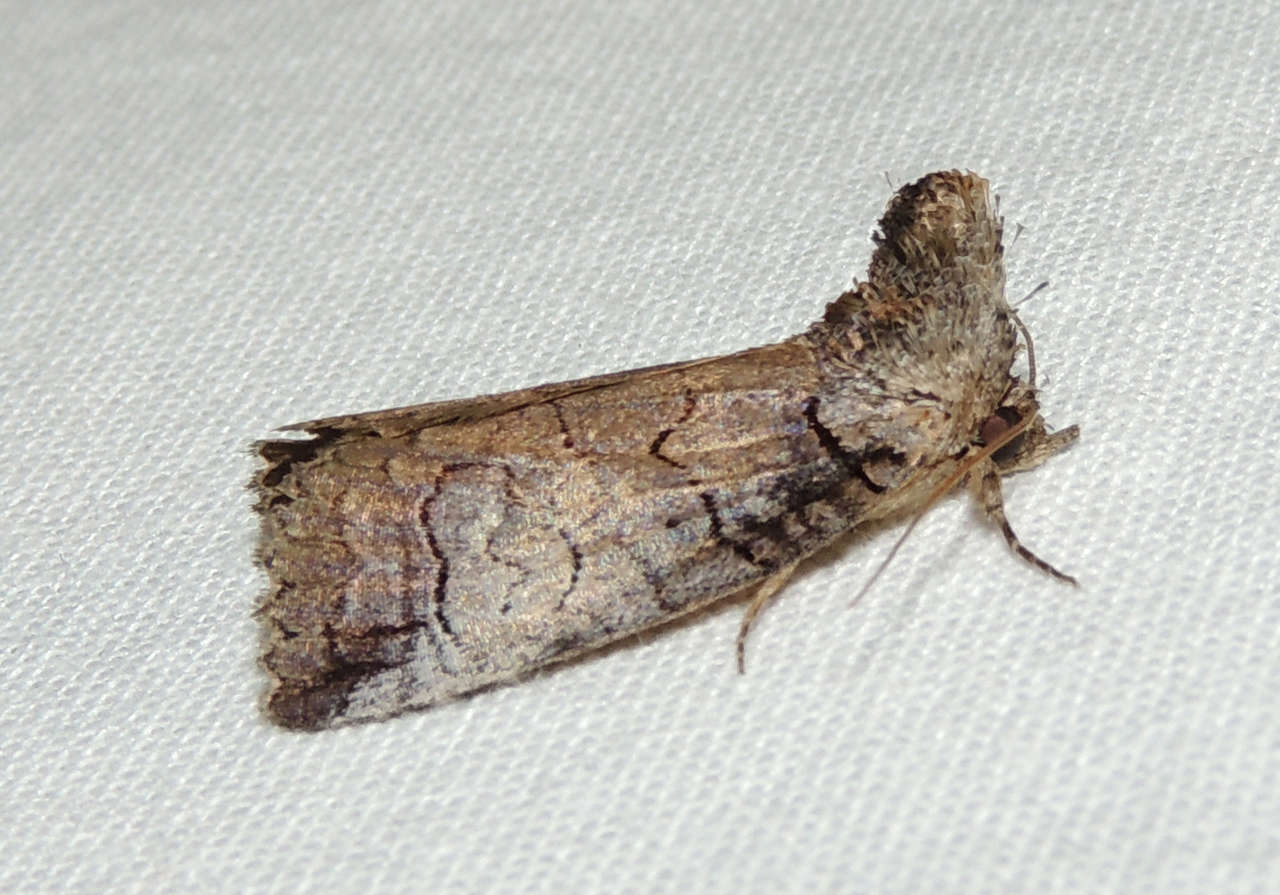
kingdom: Animalia
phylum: Arthropoda
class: Insecta
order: Lepidoptera
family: Erebidae
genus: Prorocopis
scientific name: Prorocopis euxantha
